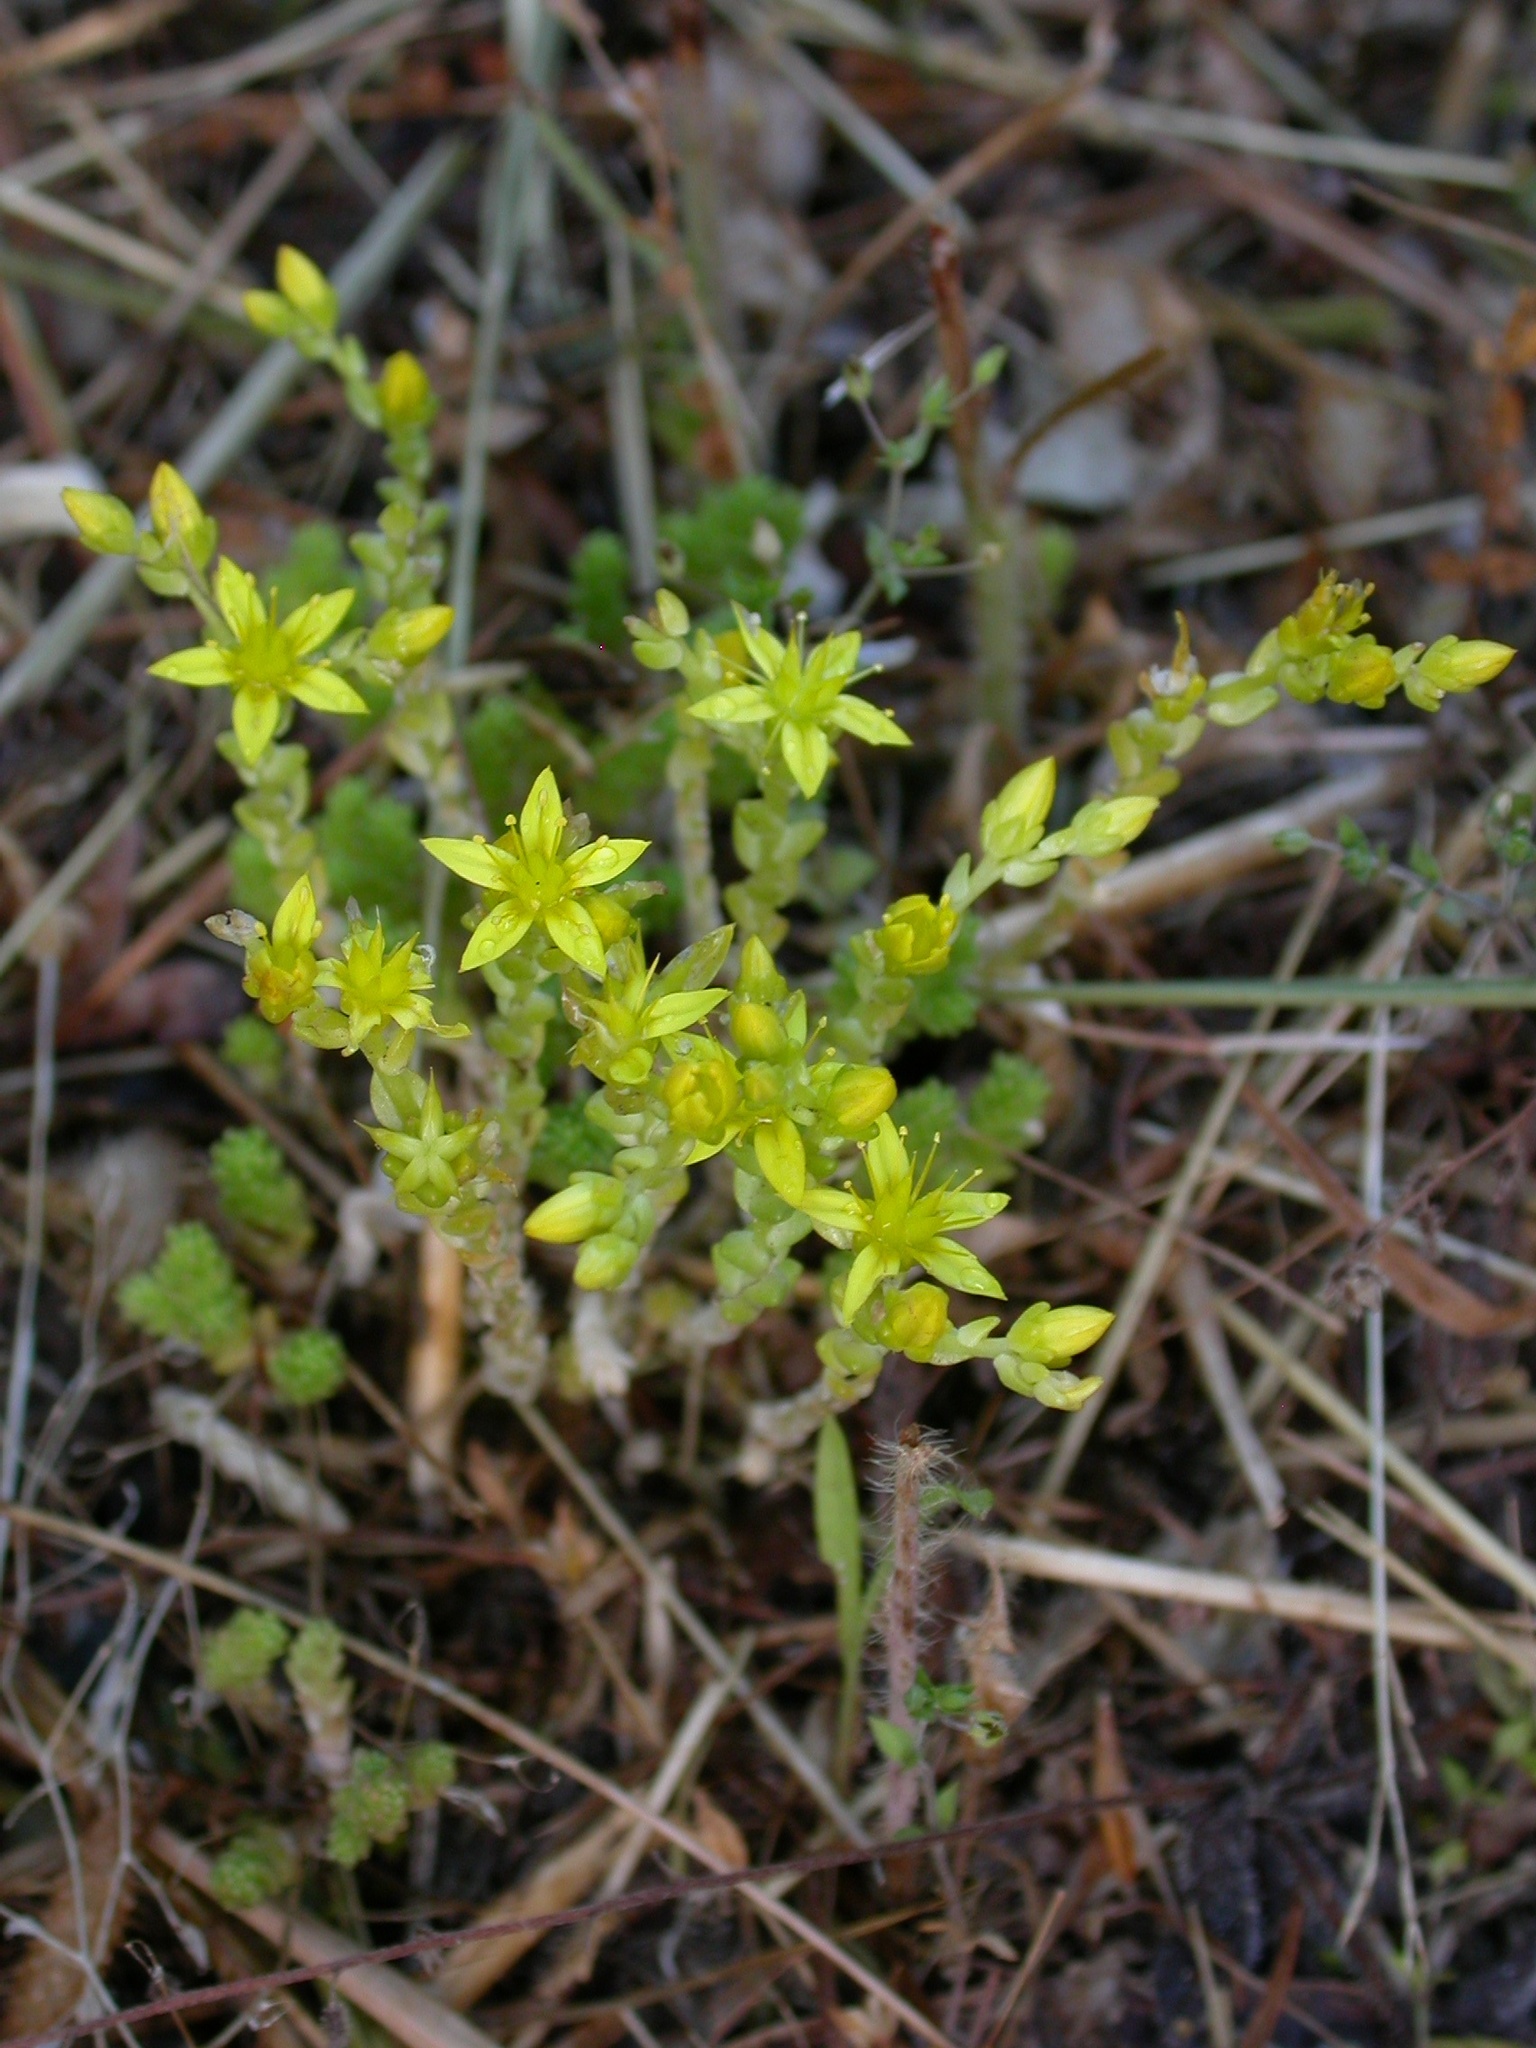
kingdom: Plantae
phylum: Tracheophyta
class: Magnoliopsida
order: Saxifragales
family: Crassulaceae
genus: Sedum
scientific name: Sedum acre
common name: Biting stonecrop
